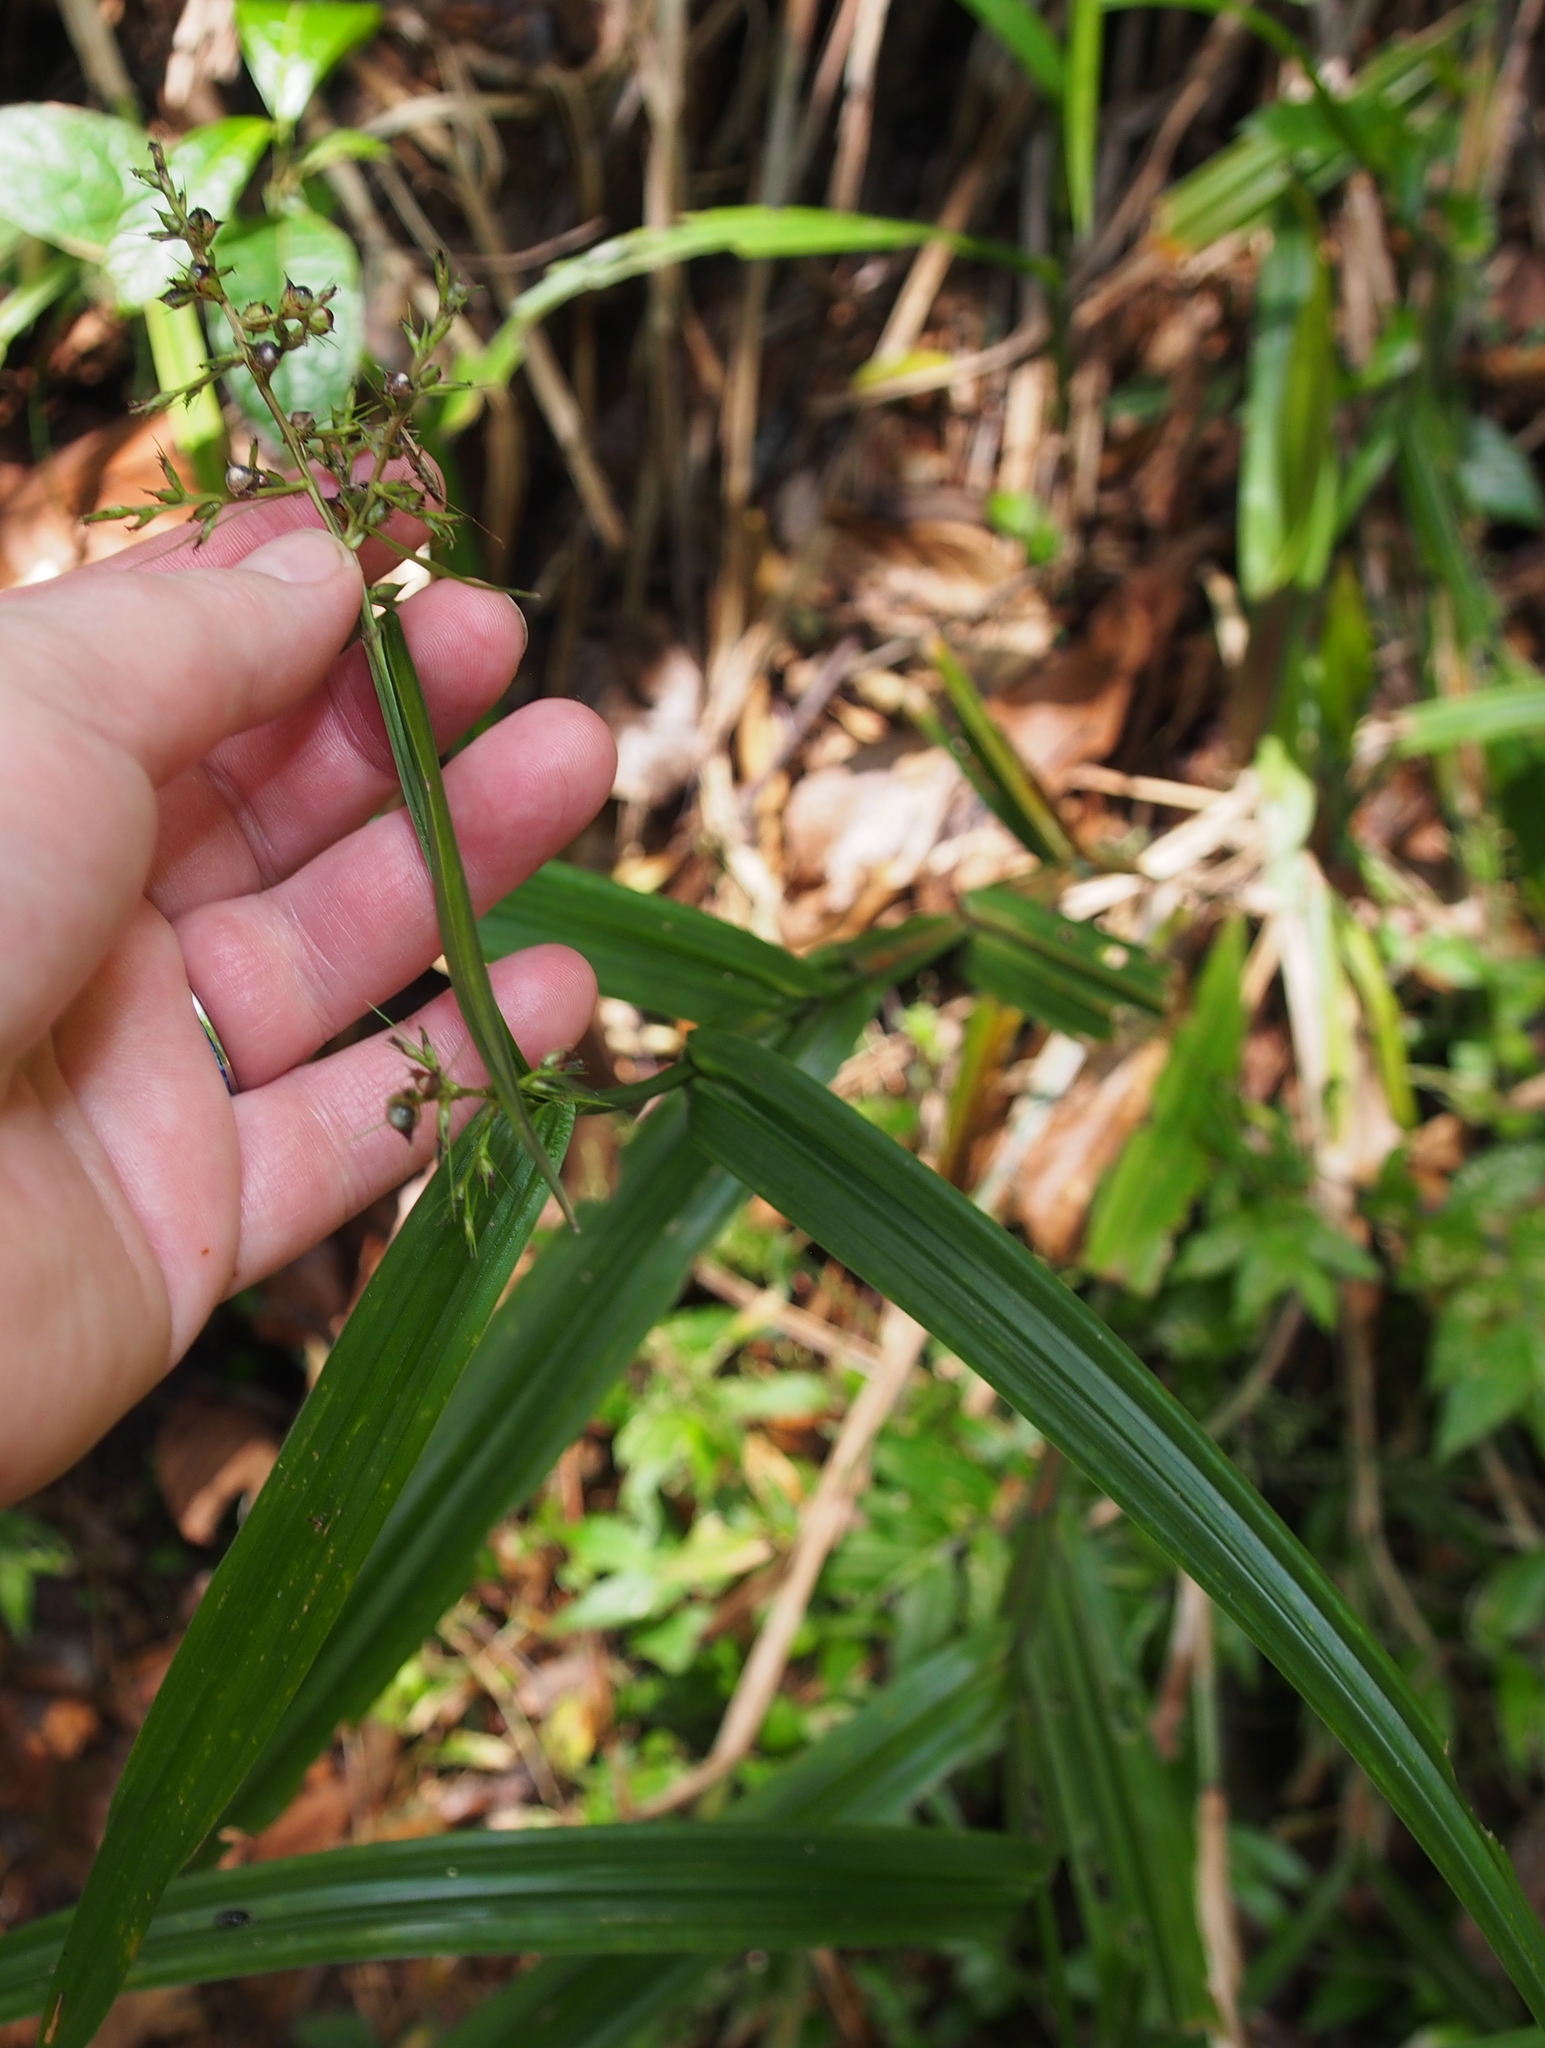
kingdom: Plantae
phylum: Tracheophyta
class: Liliopsida
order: Poales
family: Cyperaceae
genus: Scleria
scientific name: Scleria gaertneri
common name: Cortadera blanca
